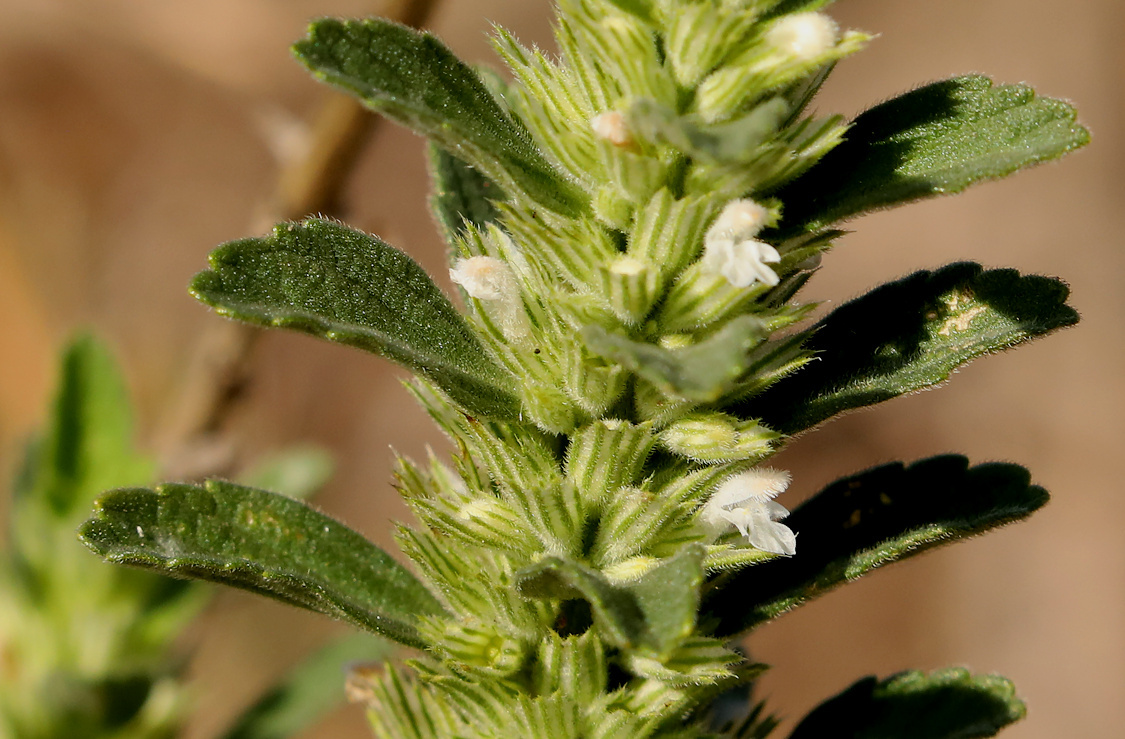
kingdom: Plantae
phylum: Tracheophyta
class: Magnoliopsida
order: Lamiales
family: Lamiaceae
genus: Leucas
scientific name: Leucas neuflizeana
